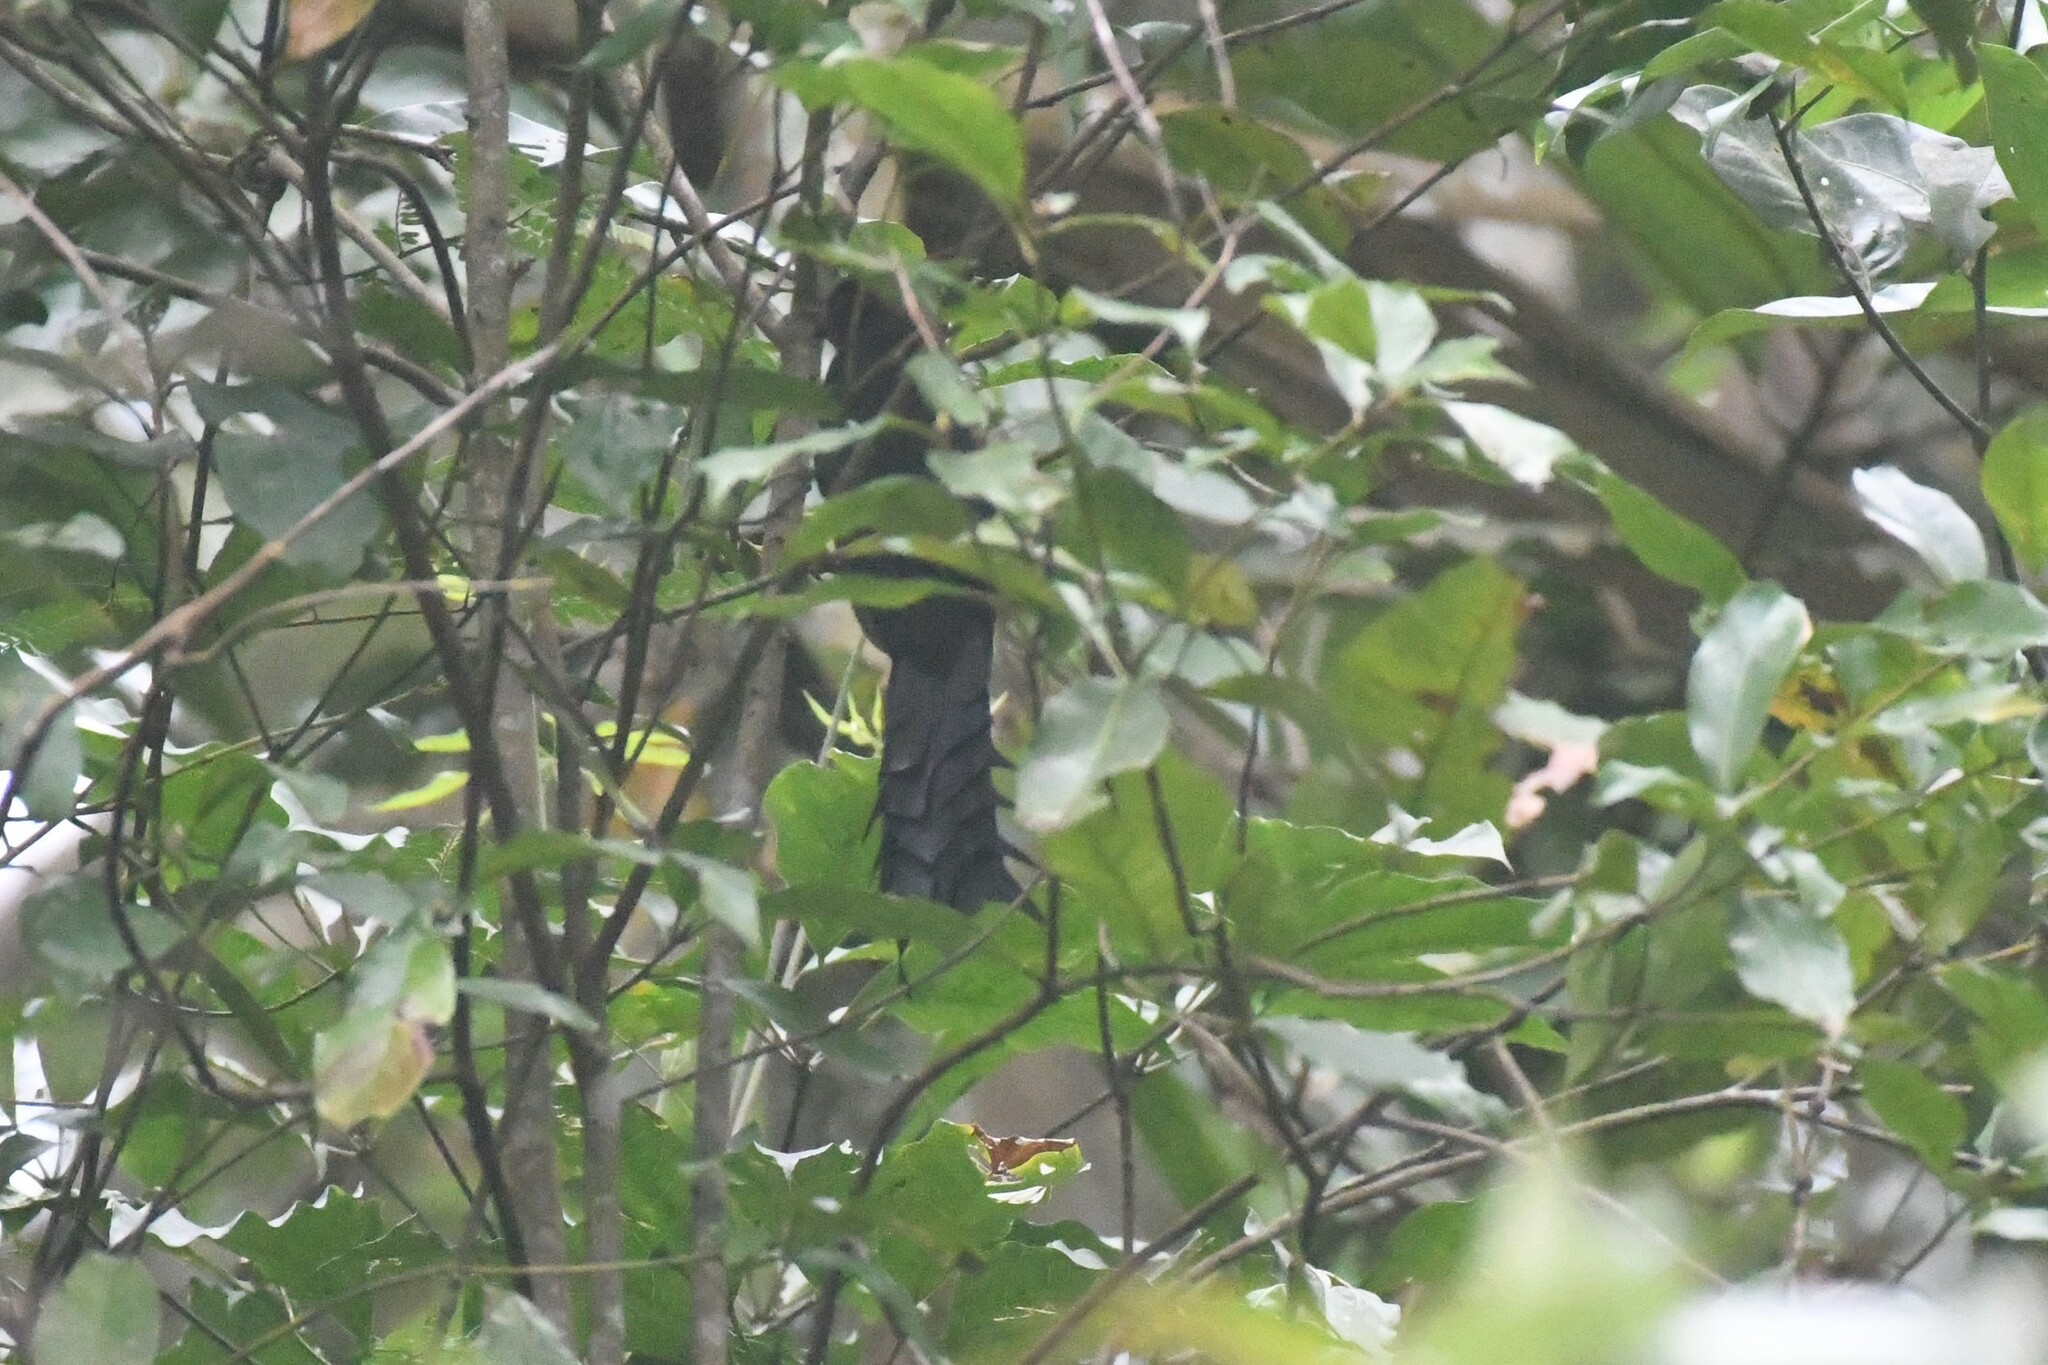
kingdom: Animalia
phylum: Chordata
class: Aves
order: Passeriformes
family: Corvidae
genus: Temnurus
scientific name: Temnurus temnurus
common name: Ratchet-tailed treepie
